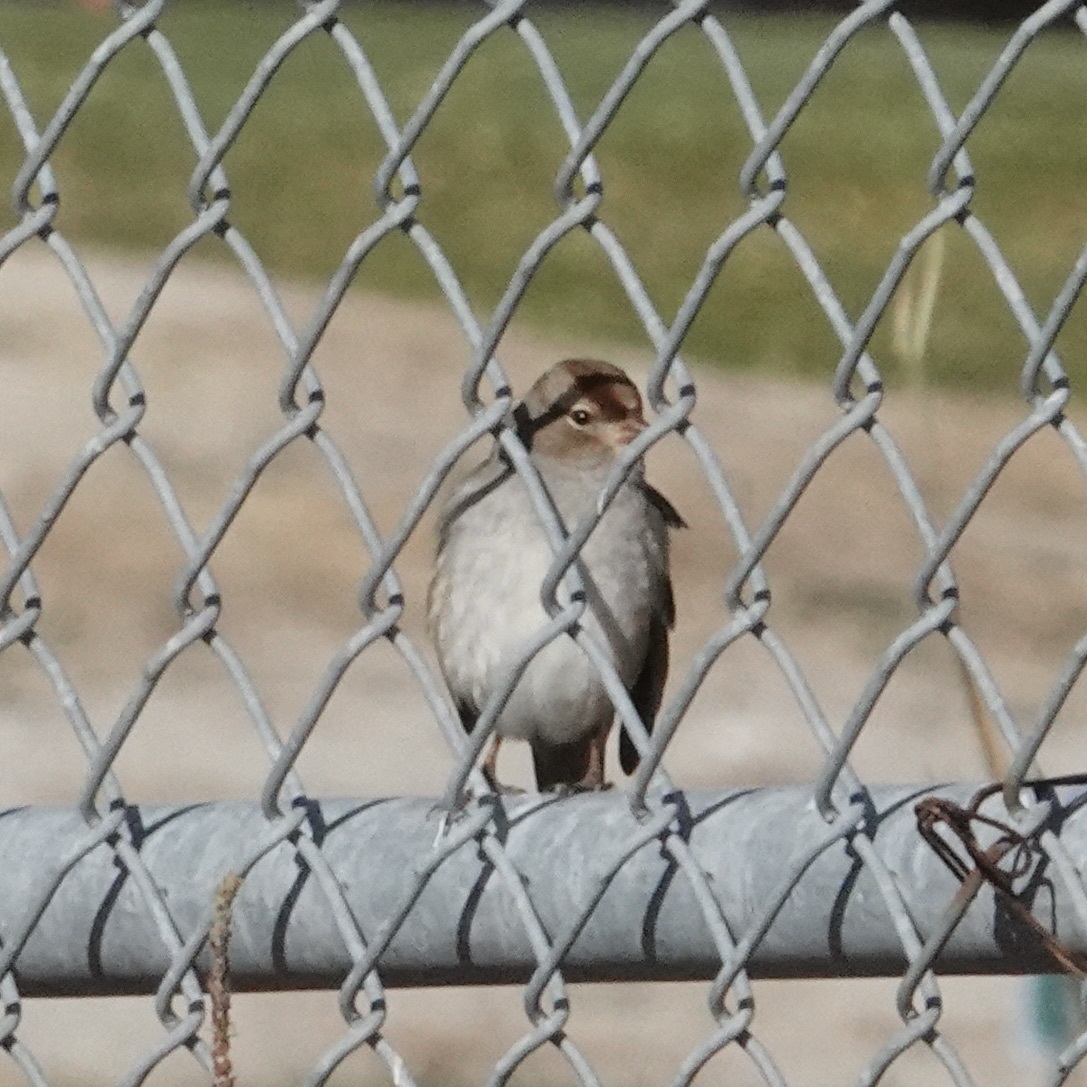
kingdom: Animalia
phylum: Chordata
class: Aves
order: Passeriformes
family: Passerellidae
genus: Zonotrichia
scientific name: Zonotrichia leucophrys
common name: White-crowned sparrow
